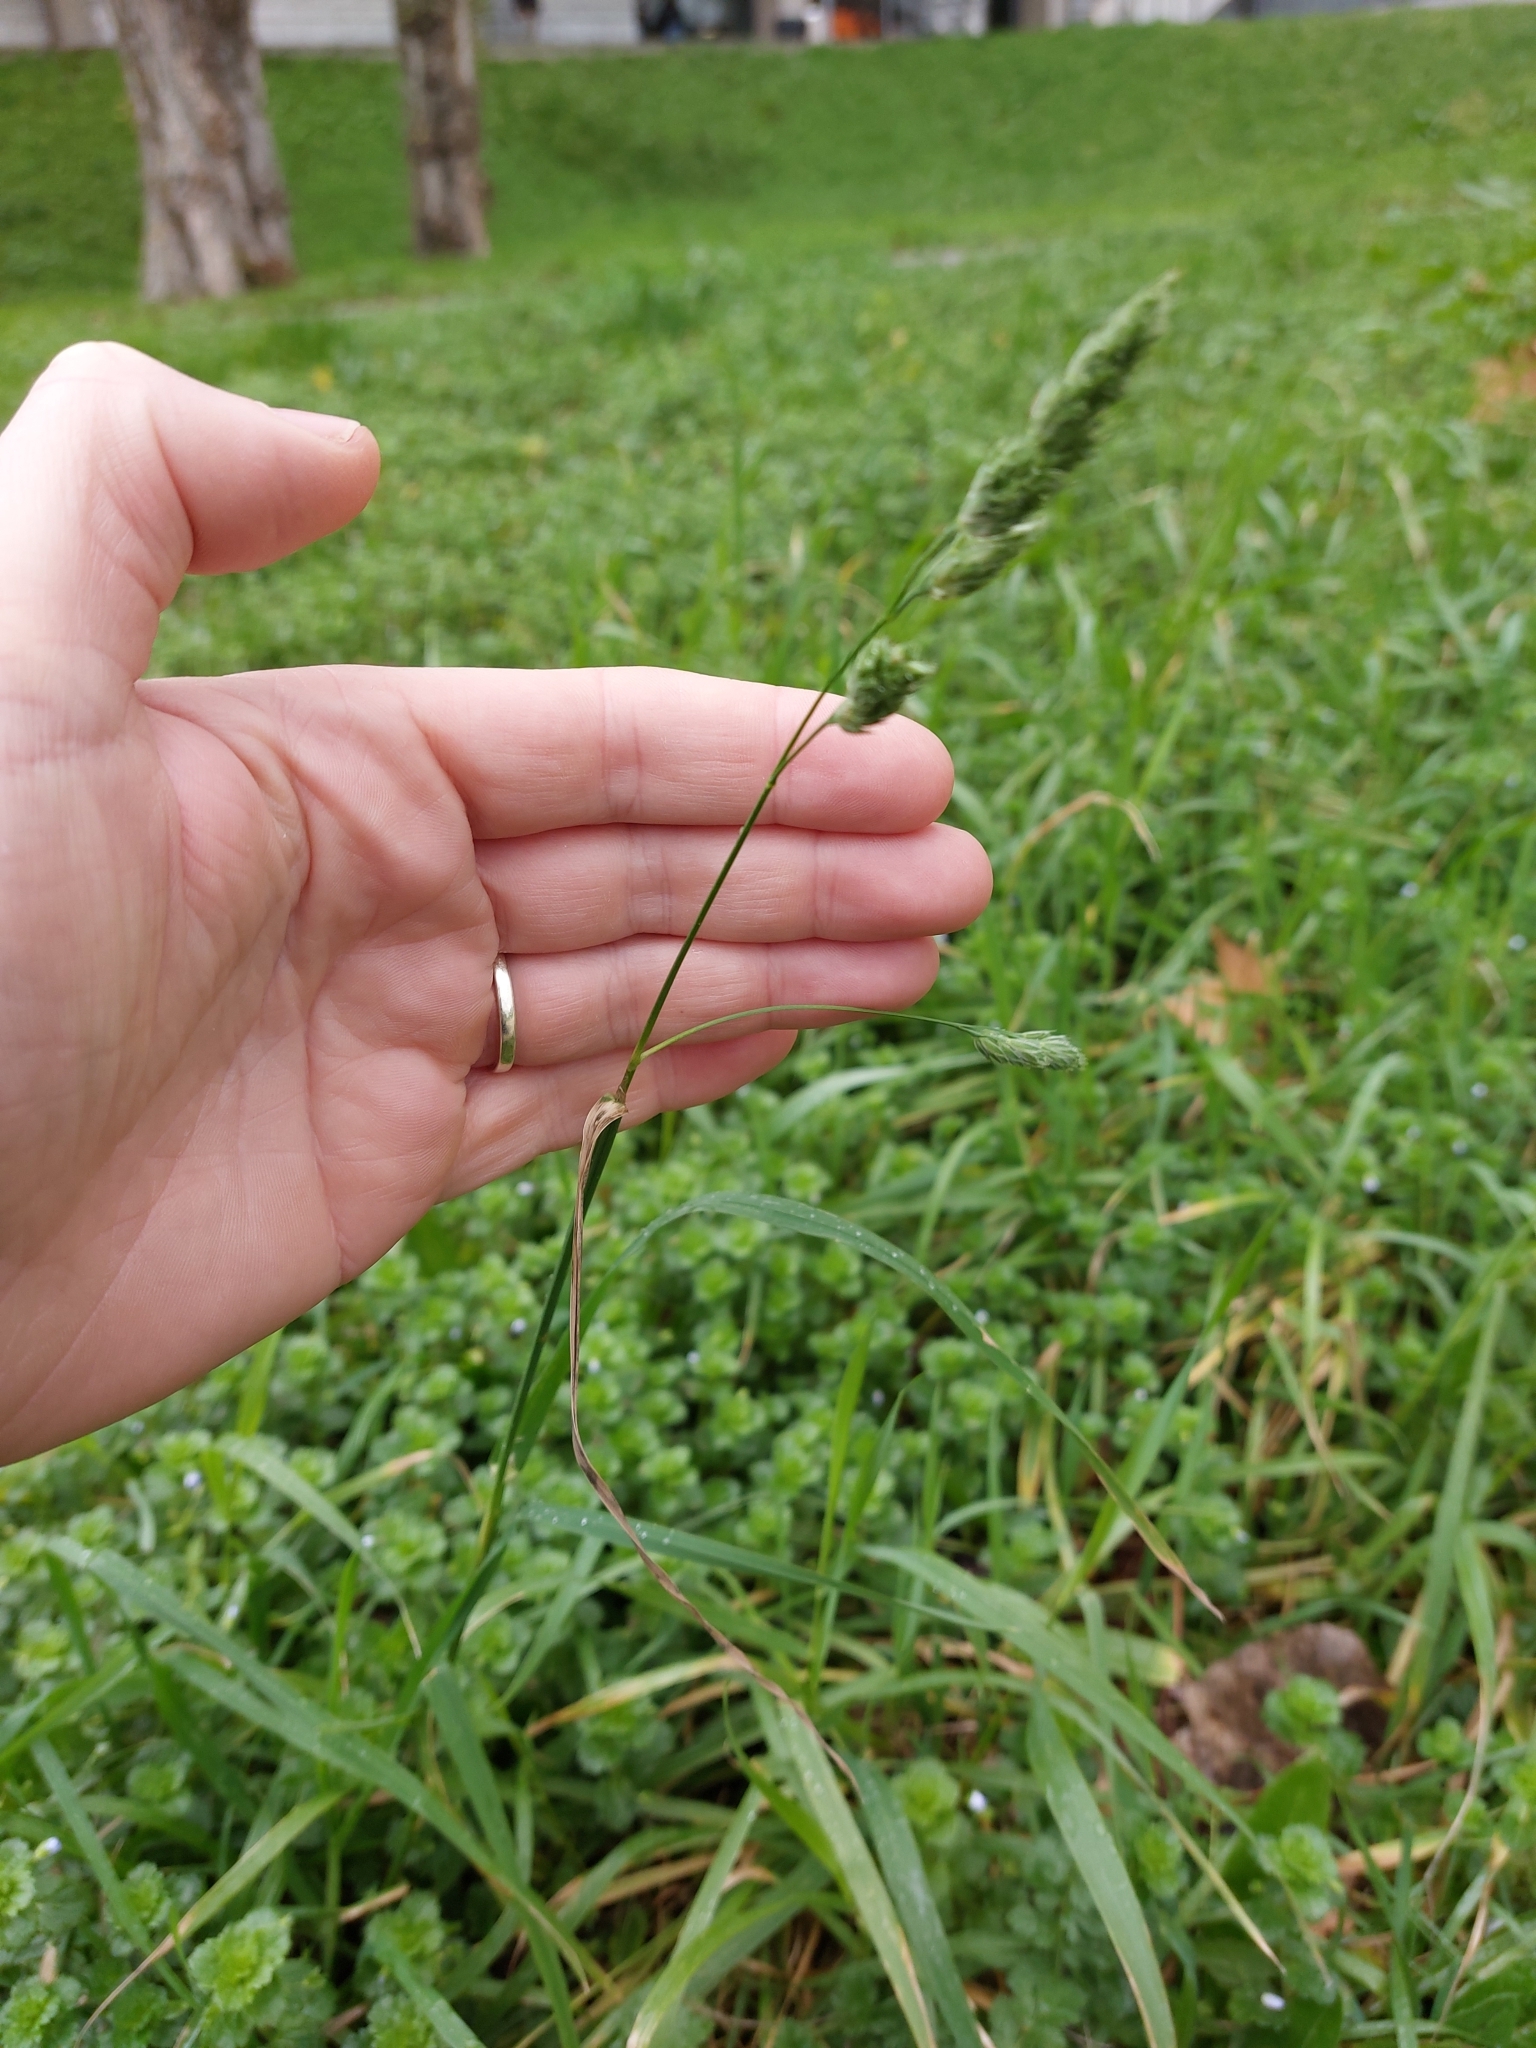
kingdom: Plantae
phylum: Tracheophyta
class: Liliopsida
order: Poales
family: Poaceae
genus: Dactylis
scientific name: Dactylis glomerata
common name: Orchardgrass
